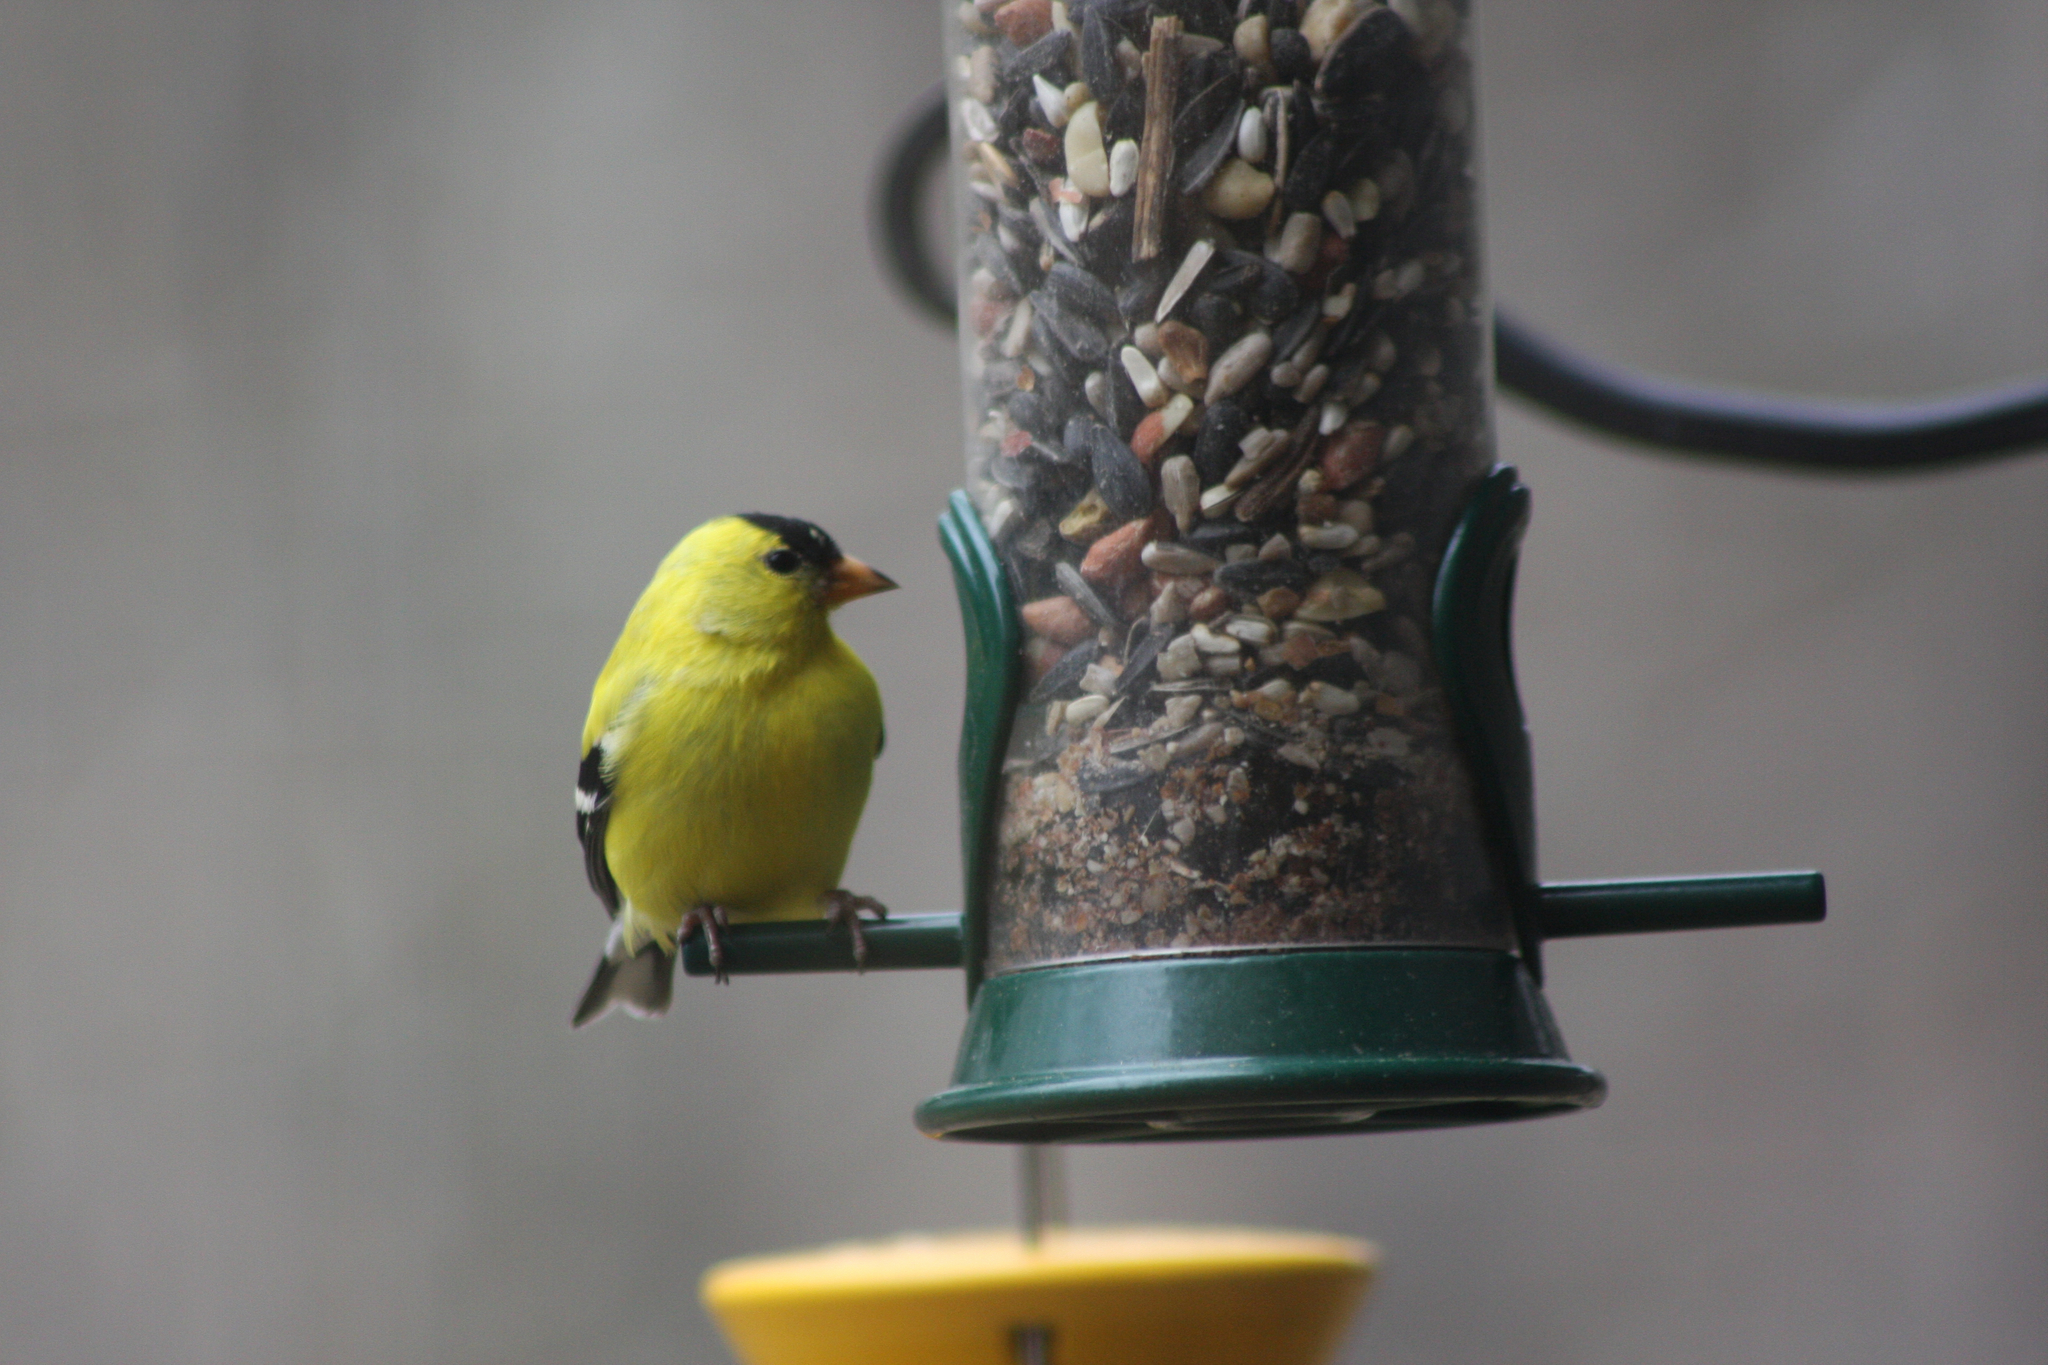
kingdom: Animalia
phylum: Chordata
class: Aves
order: Passeriformes
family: Fringillidae
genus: Spinus
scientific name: Spinus tristis
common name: American goldfinch
